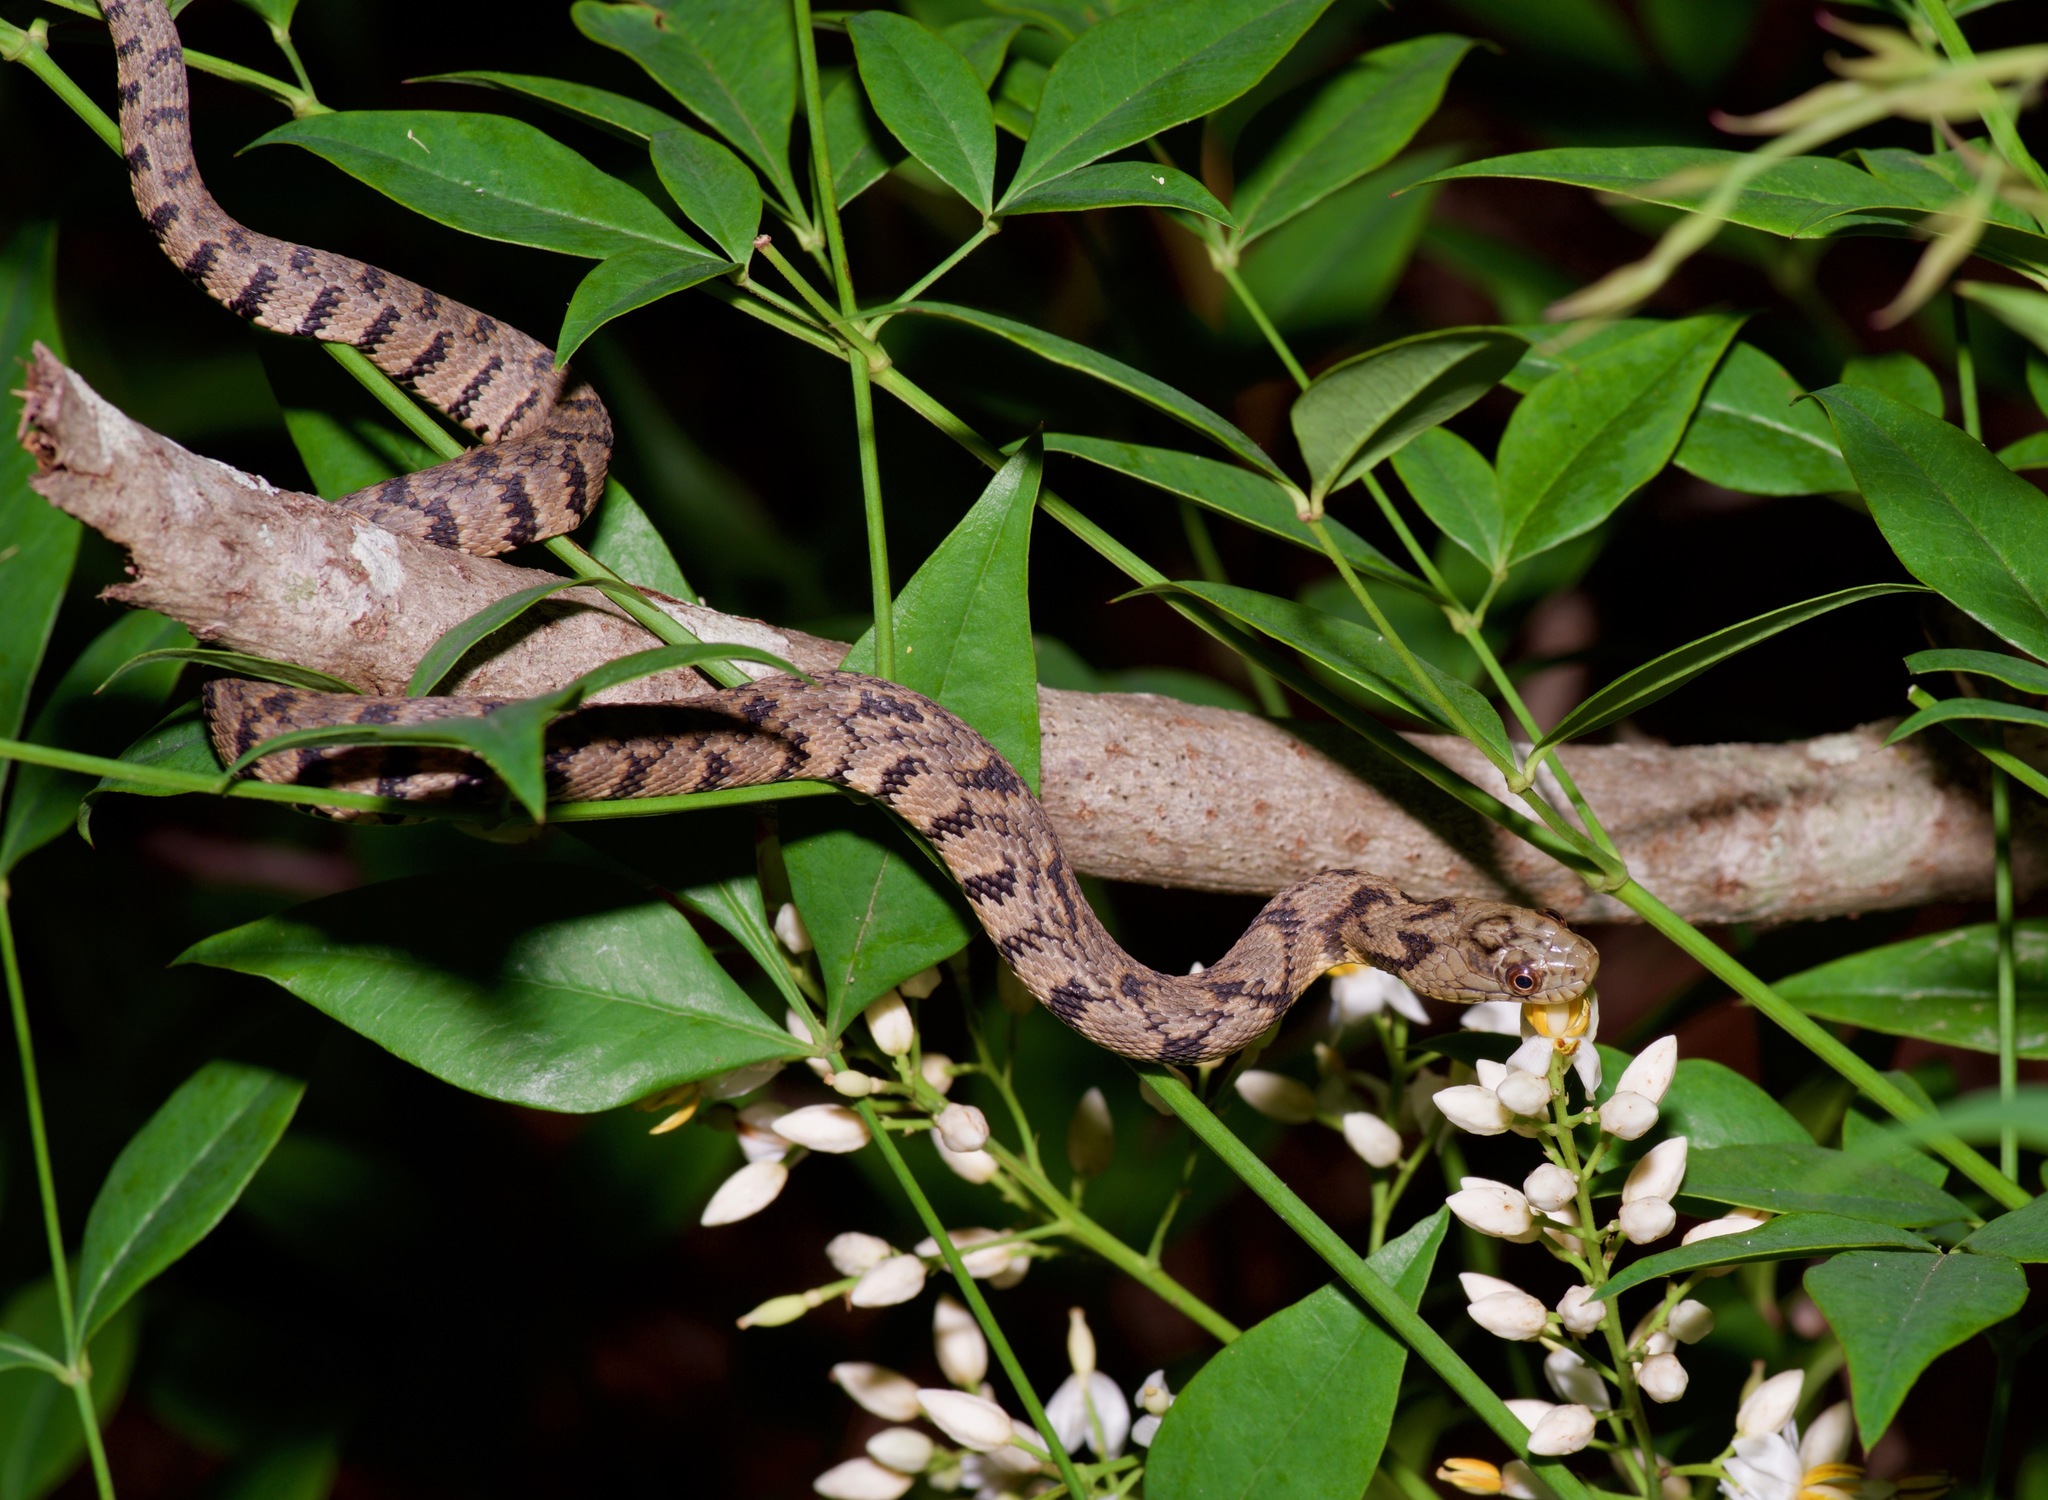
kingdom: Animalia
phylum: Chordata
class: Squamata
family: Colubridae
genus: Nerodia
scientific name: Nerodia rhombifer
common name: Diamondback water snake
